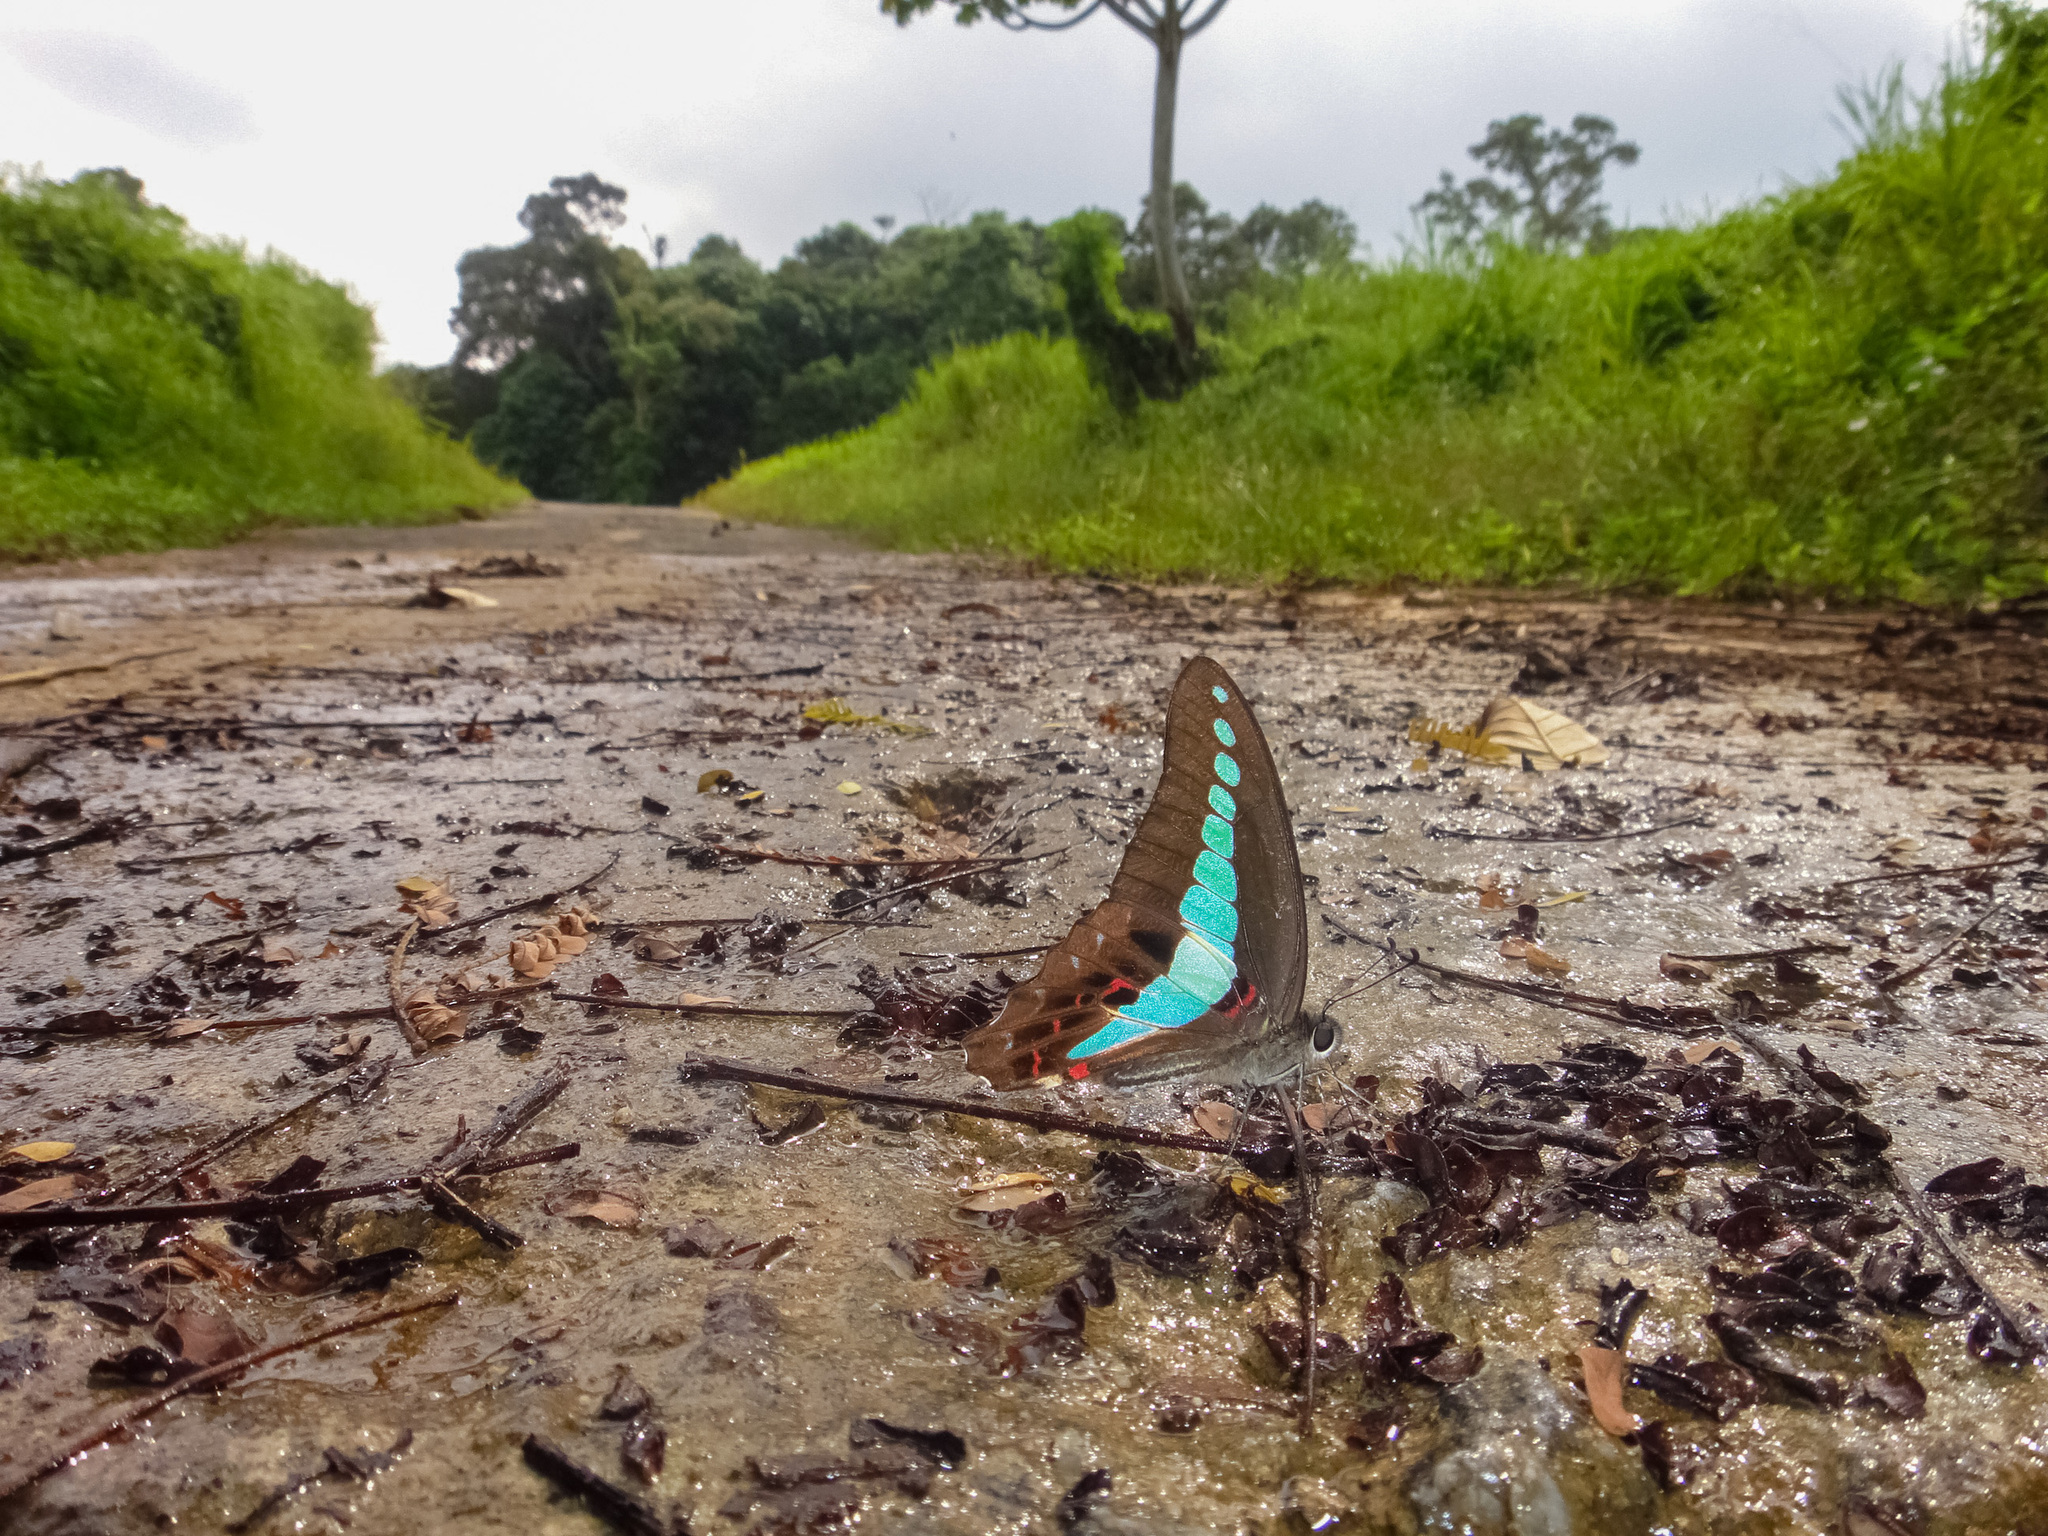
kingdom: Fungi
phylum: Ascomycota
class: Sordariomycetes
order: Microascales
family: Microascaceae
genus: Graphium
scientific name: Graphium sarpedon
